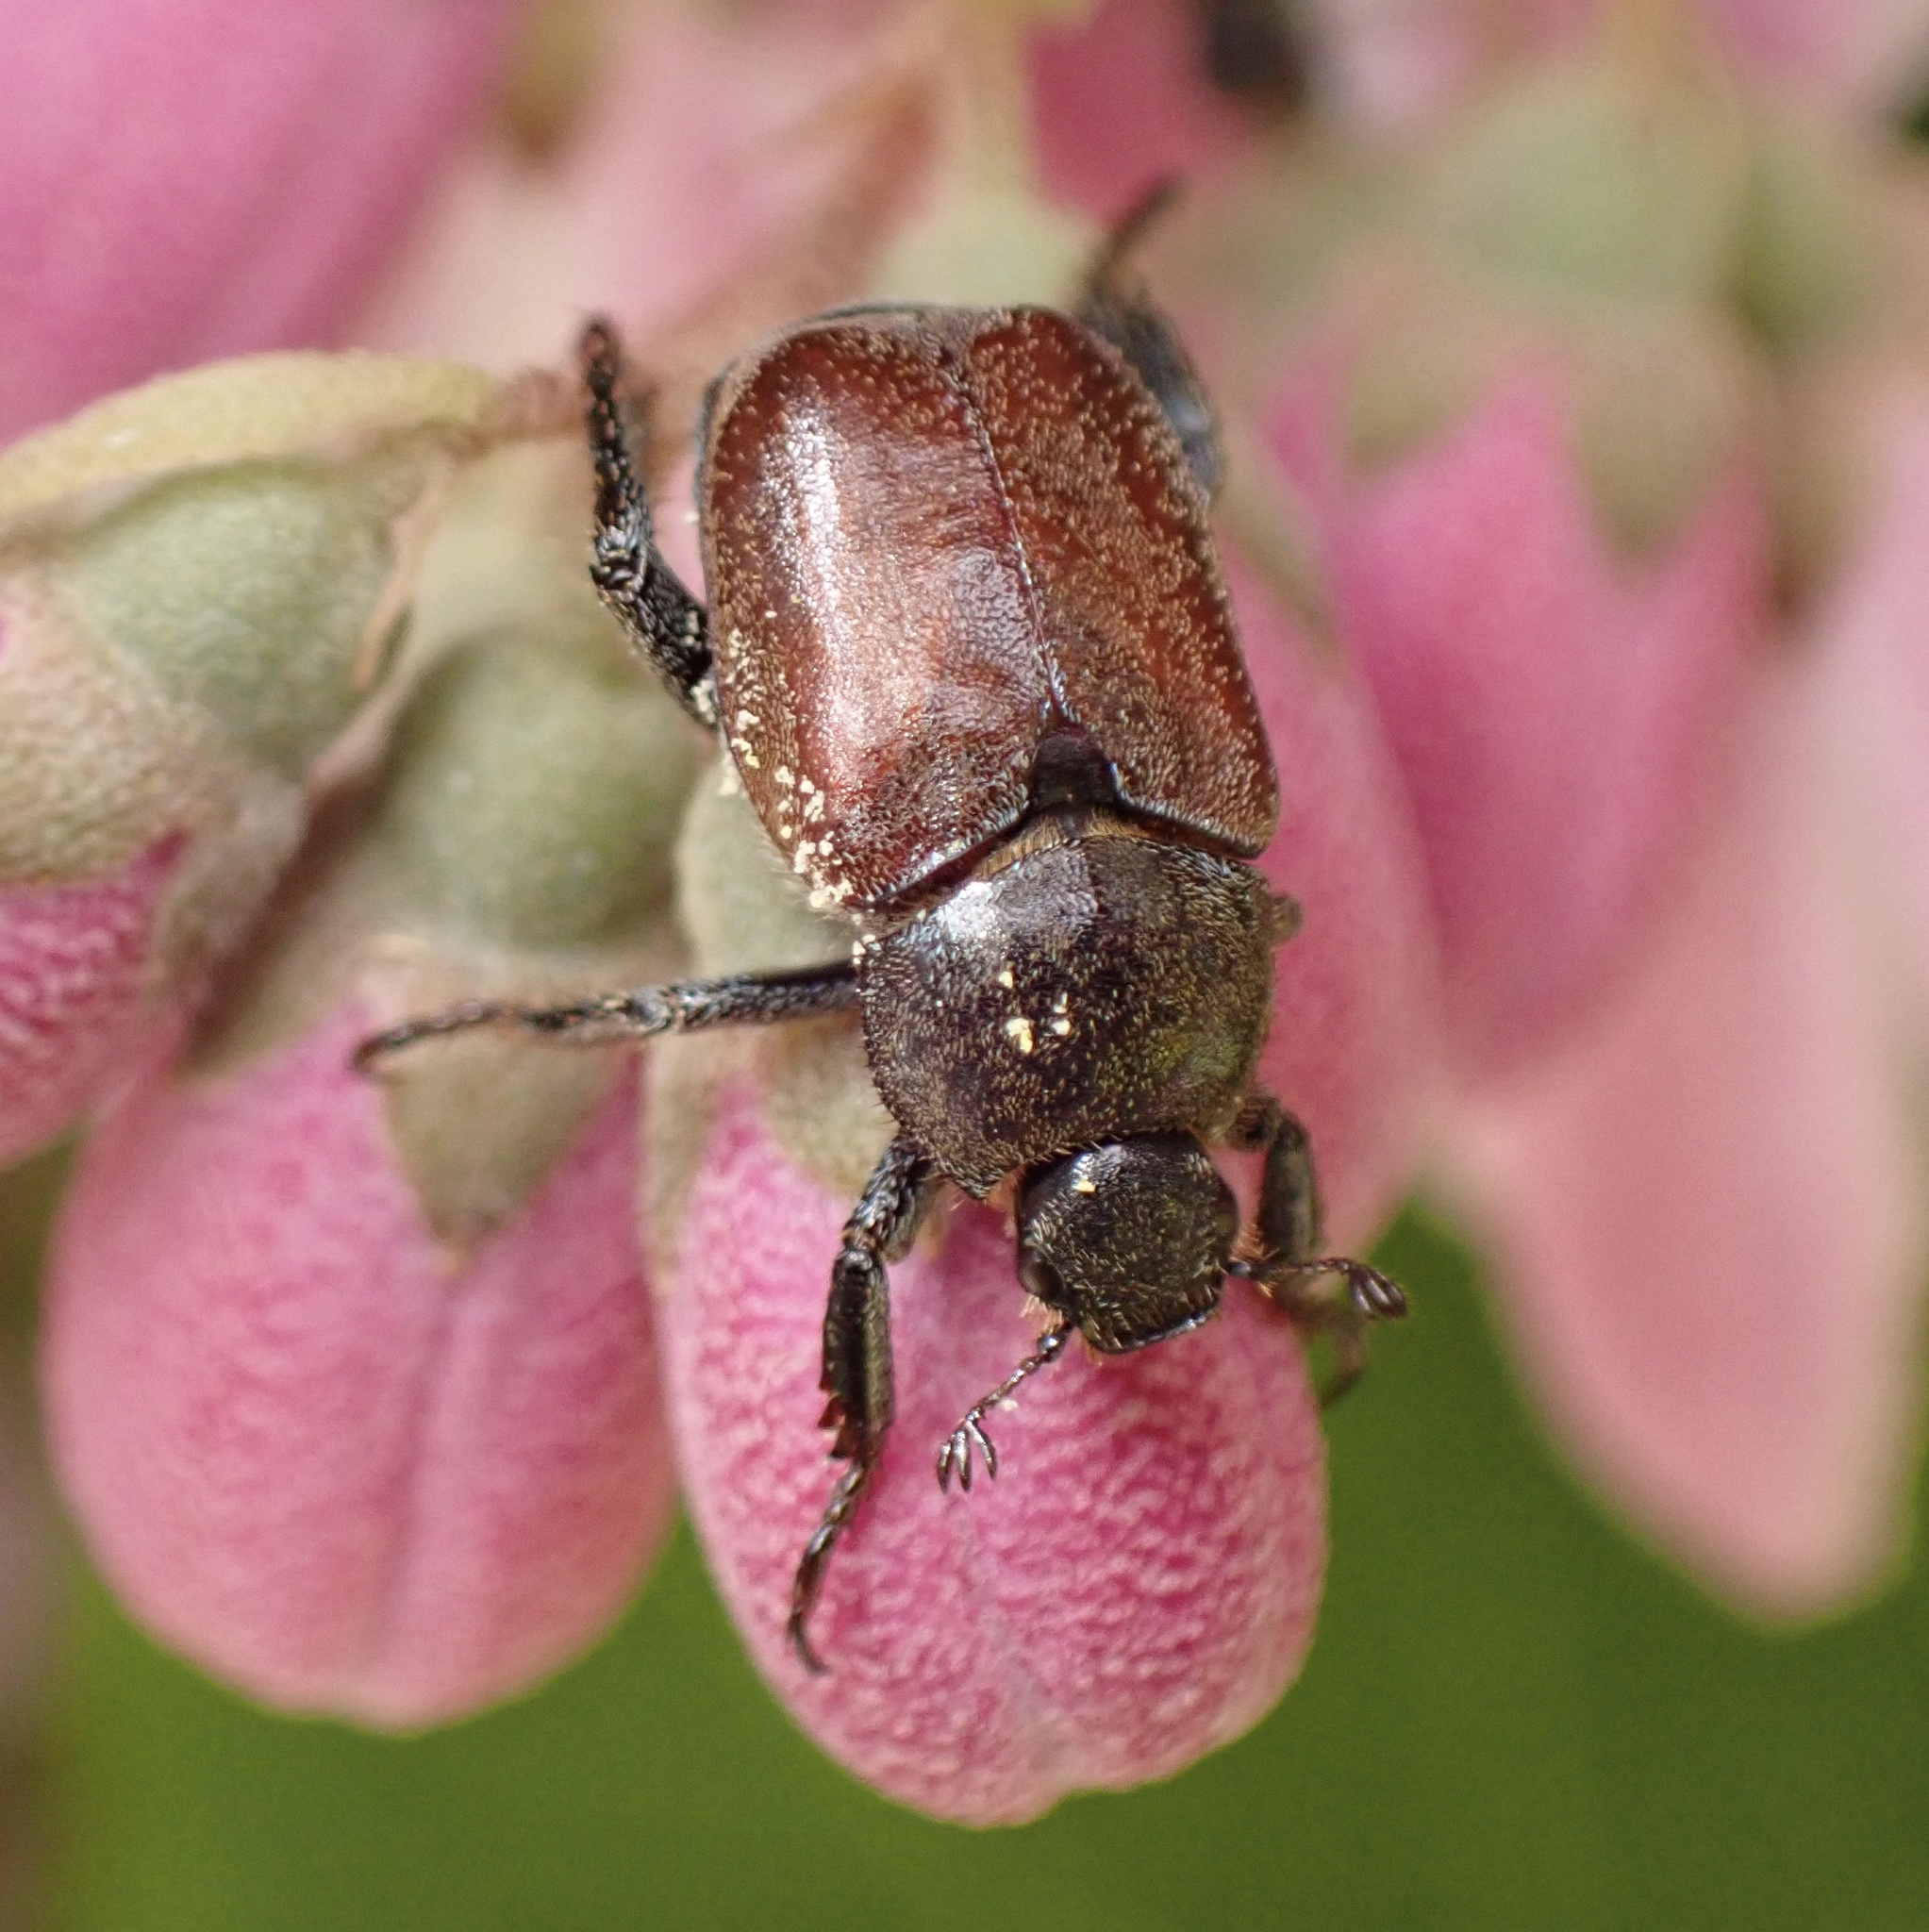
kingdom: Animalia
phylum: Arthropoda
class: Insecta
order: Coleoptera
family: Scarabaeidae
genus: Hoplia
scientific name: Hoplia philanthus
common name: Welsh chafer
